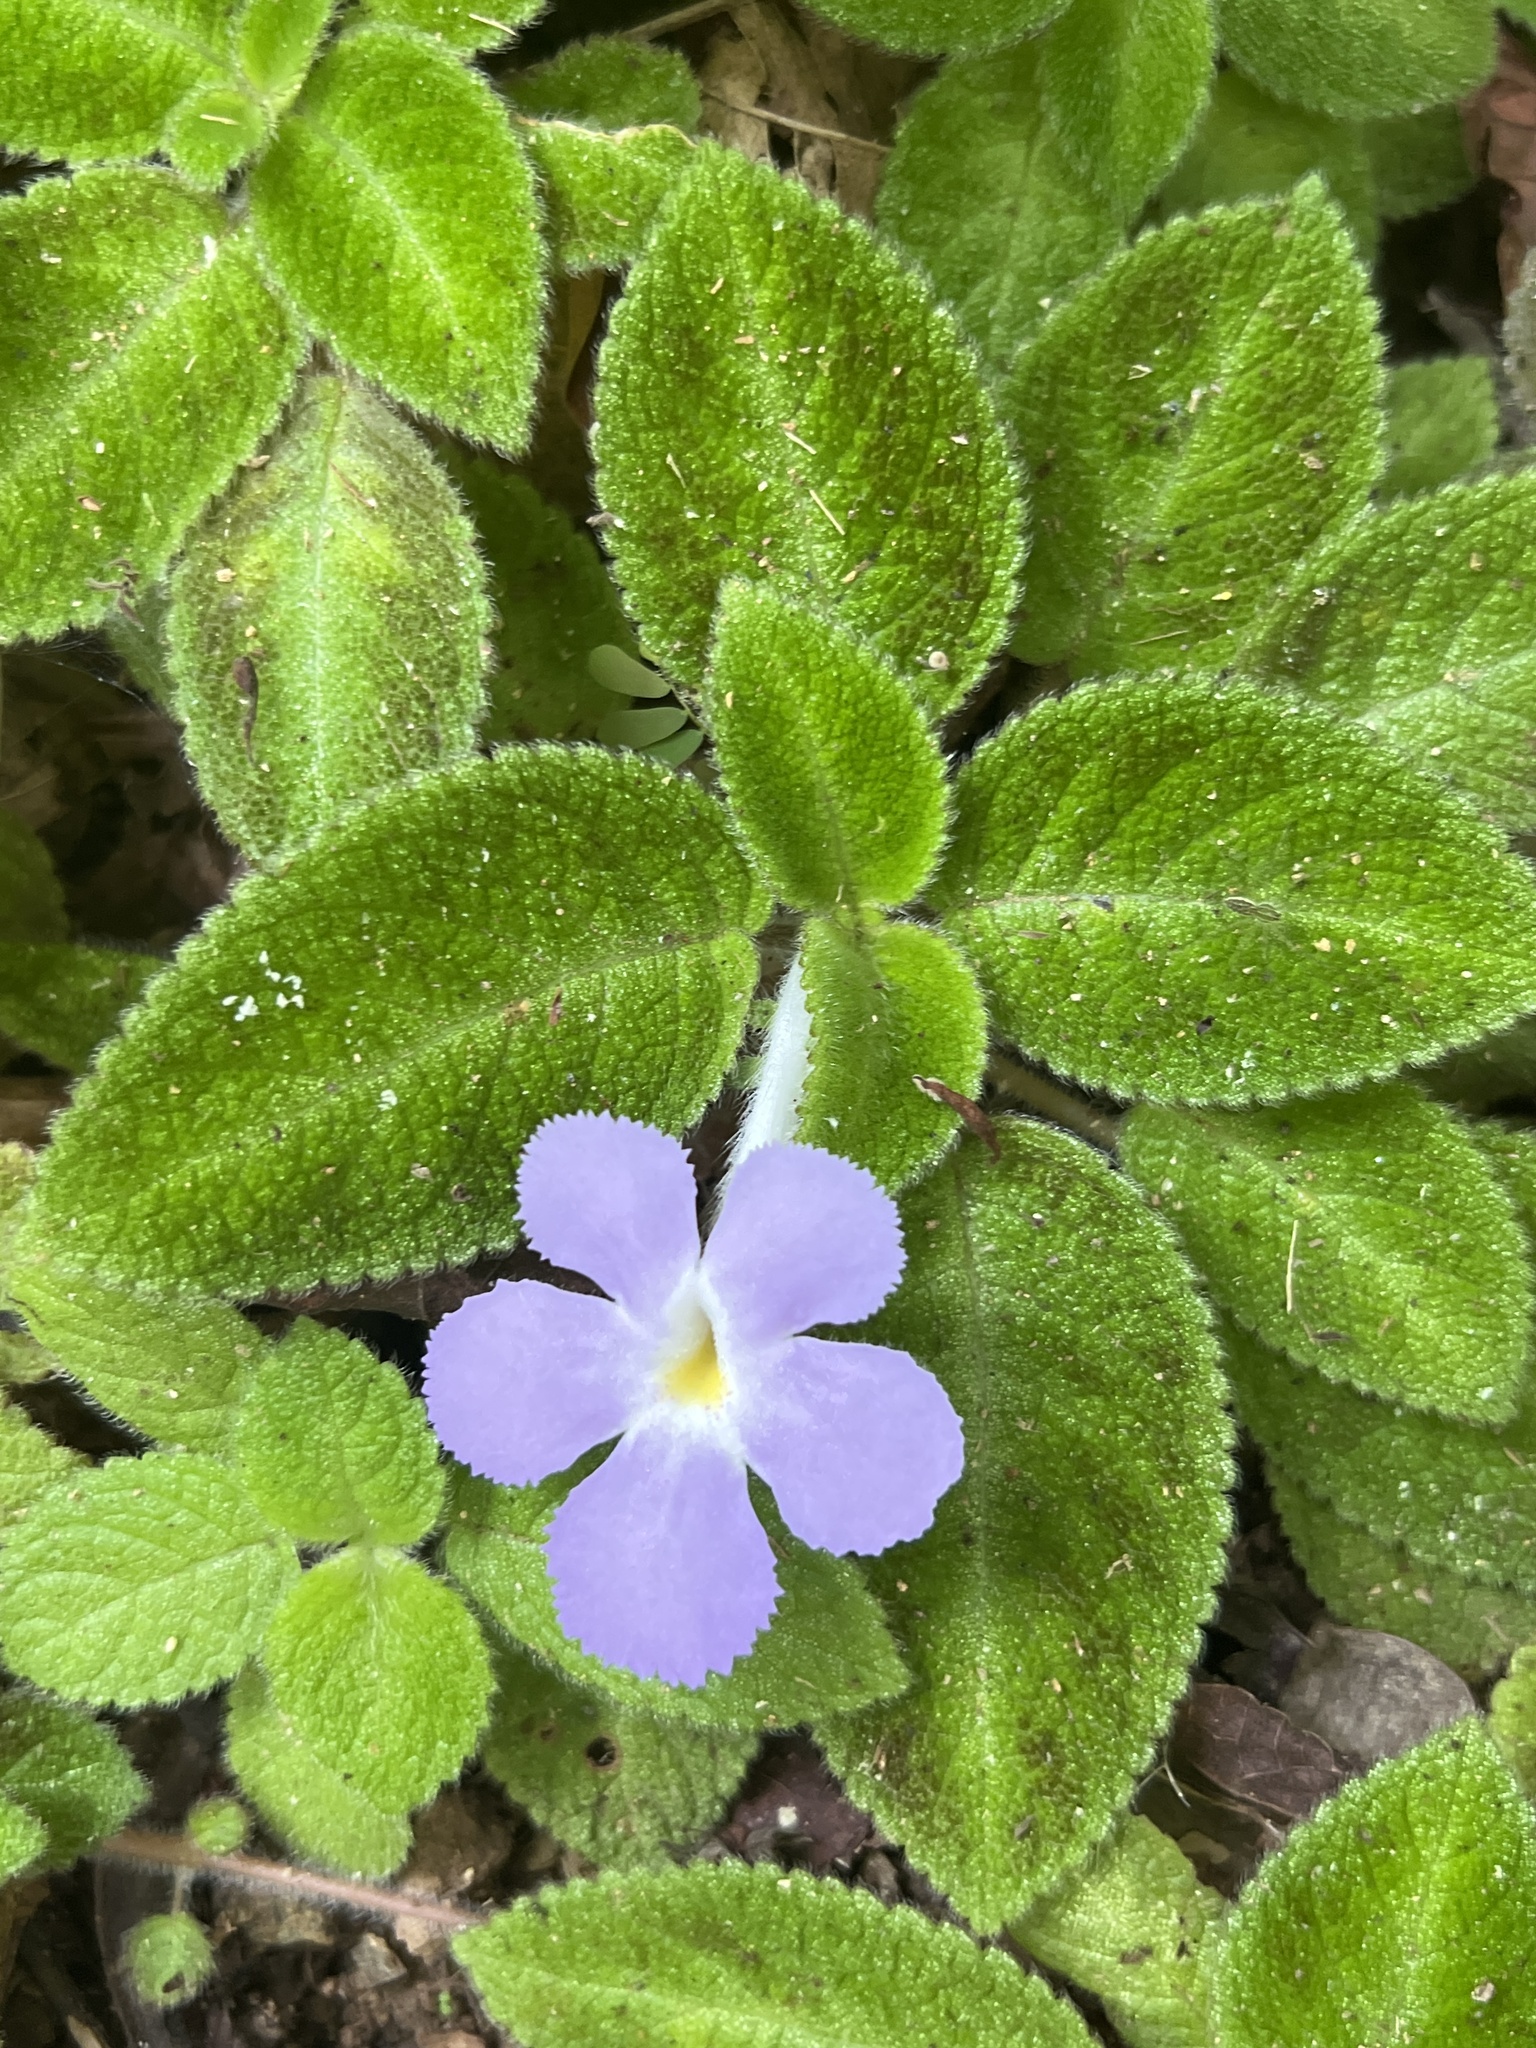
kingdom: Plantae
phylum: Tracheophyta
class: Magnoliopsida
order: Lamiales
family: Gesneriaceae
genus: Episcia
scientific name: Episcia lilacina
